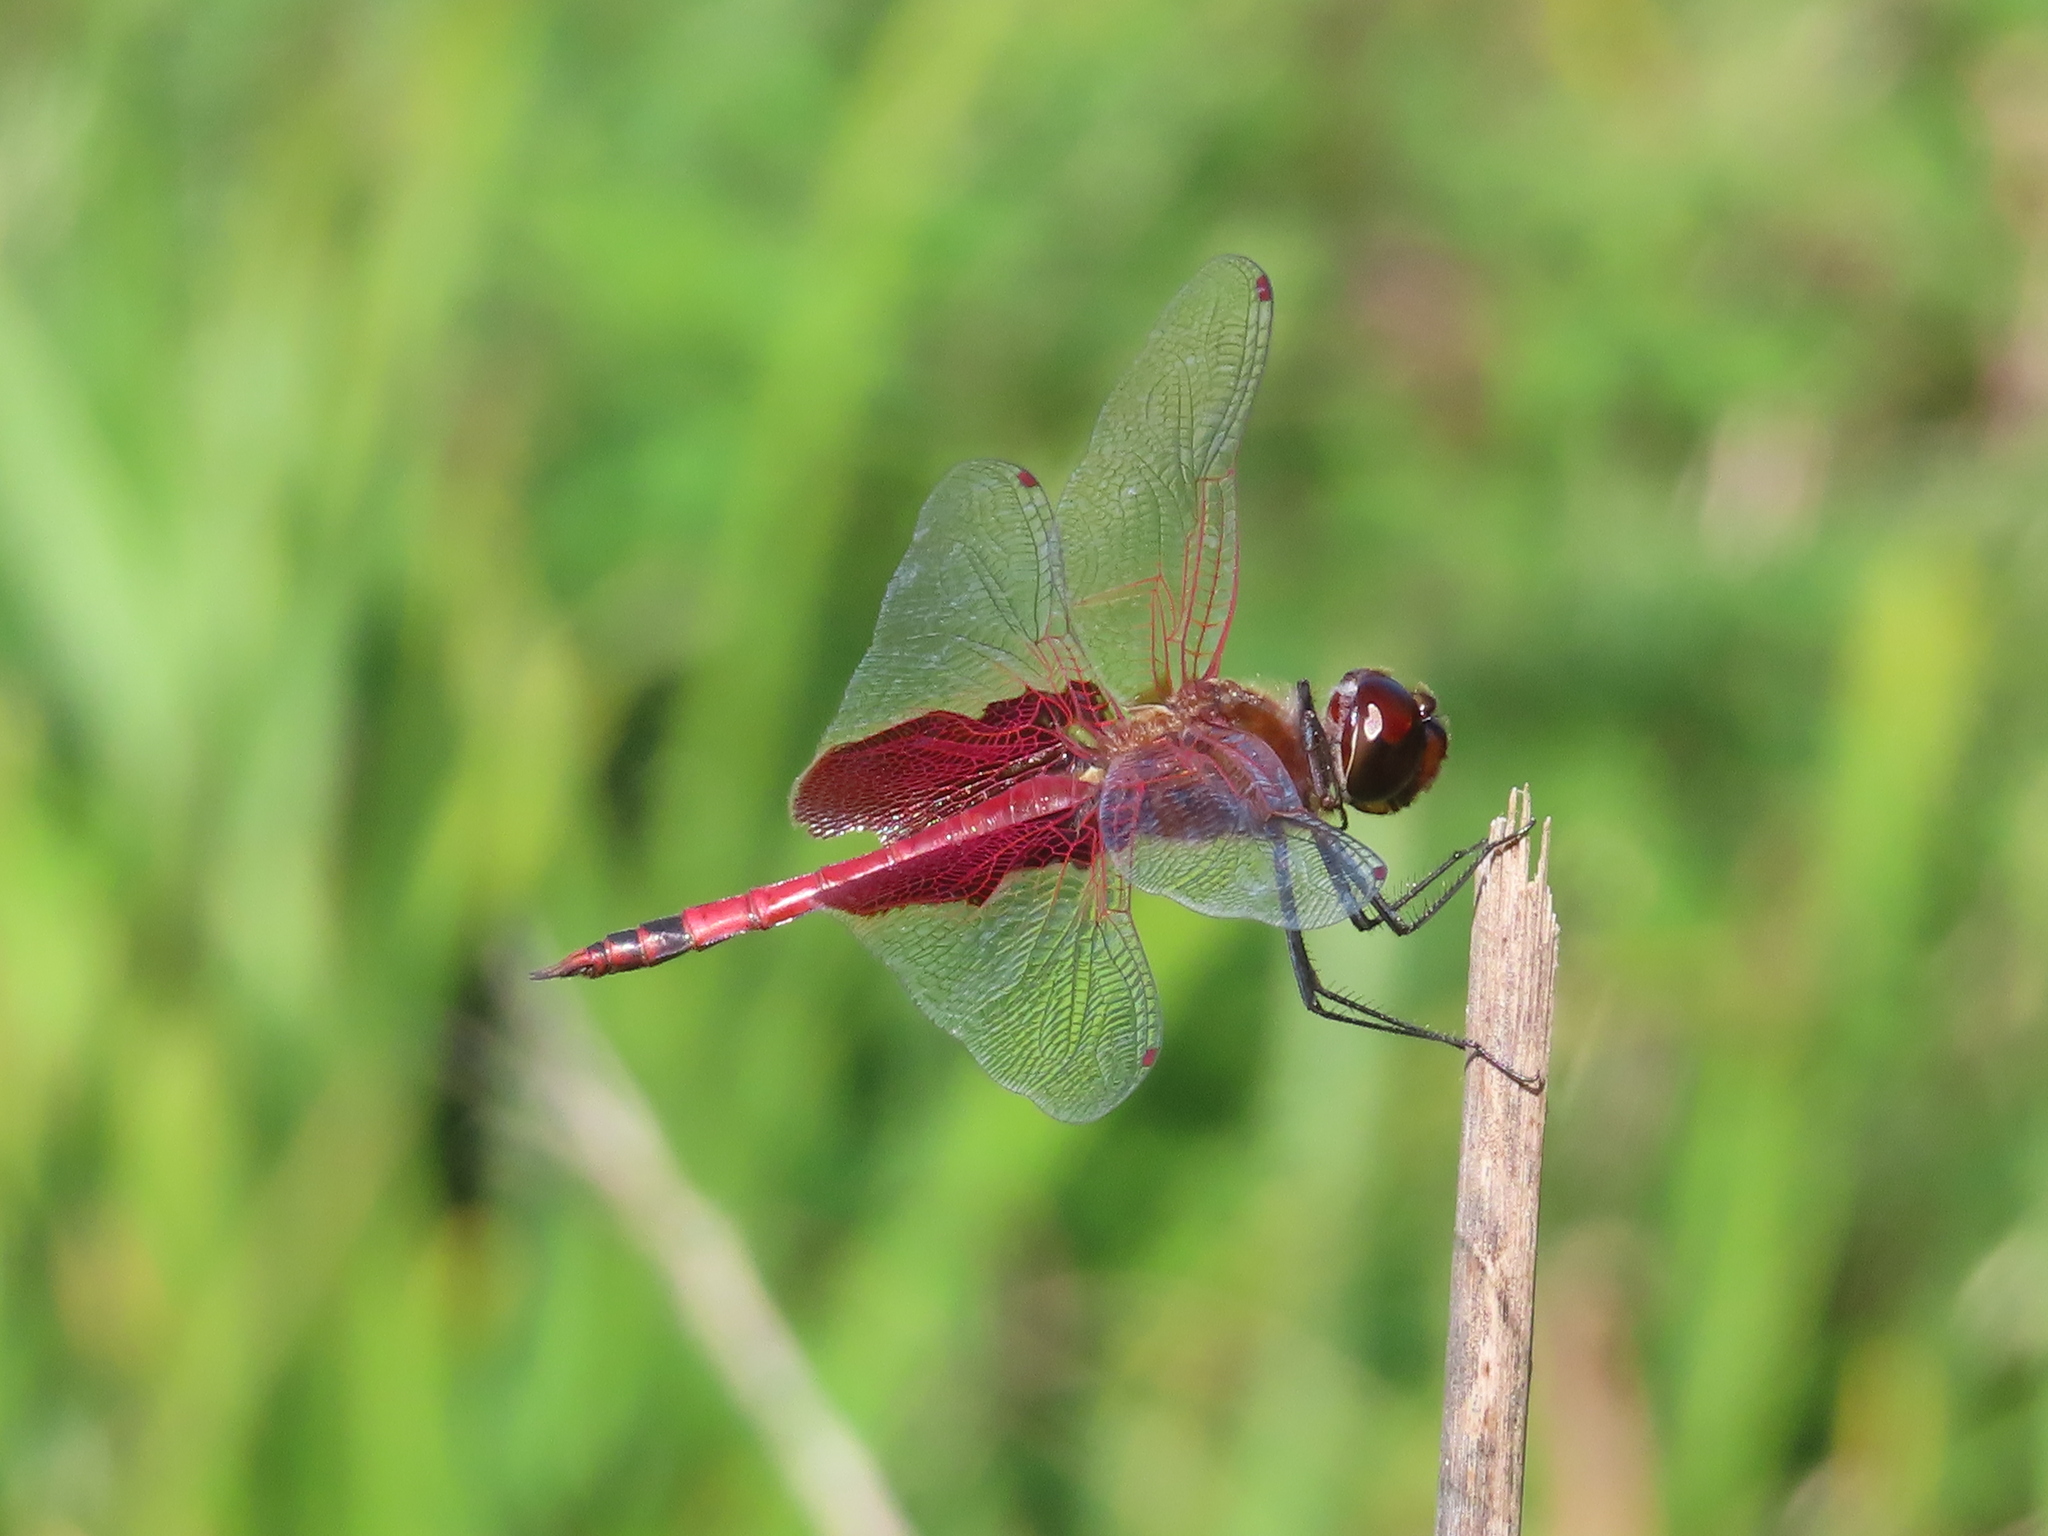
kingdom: Animalia
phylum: Arthropoda
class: Insecta
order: Odonata
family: Libellulidae
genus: Tramea
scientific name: Tramea carolina
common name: Carolina saddlebags
